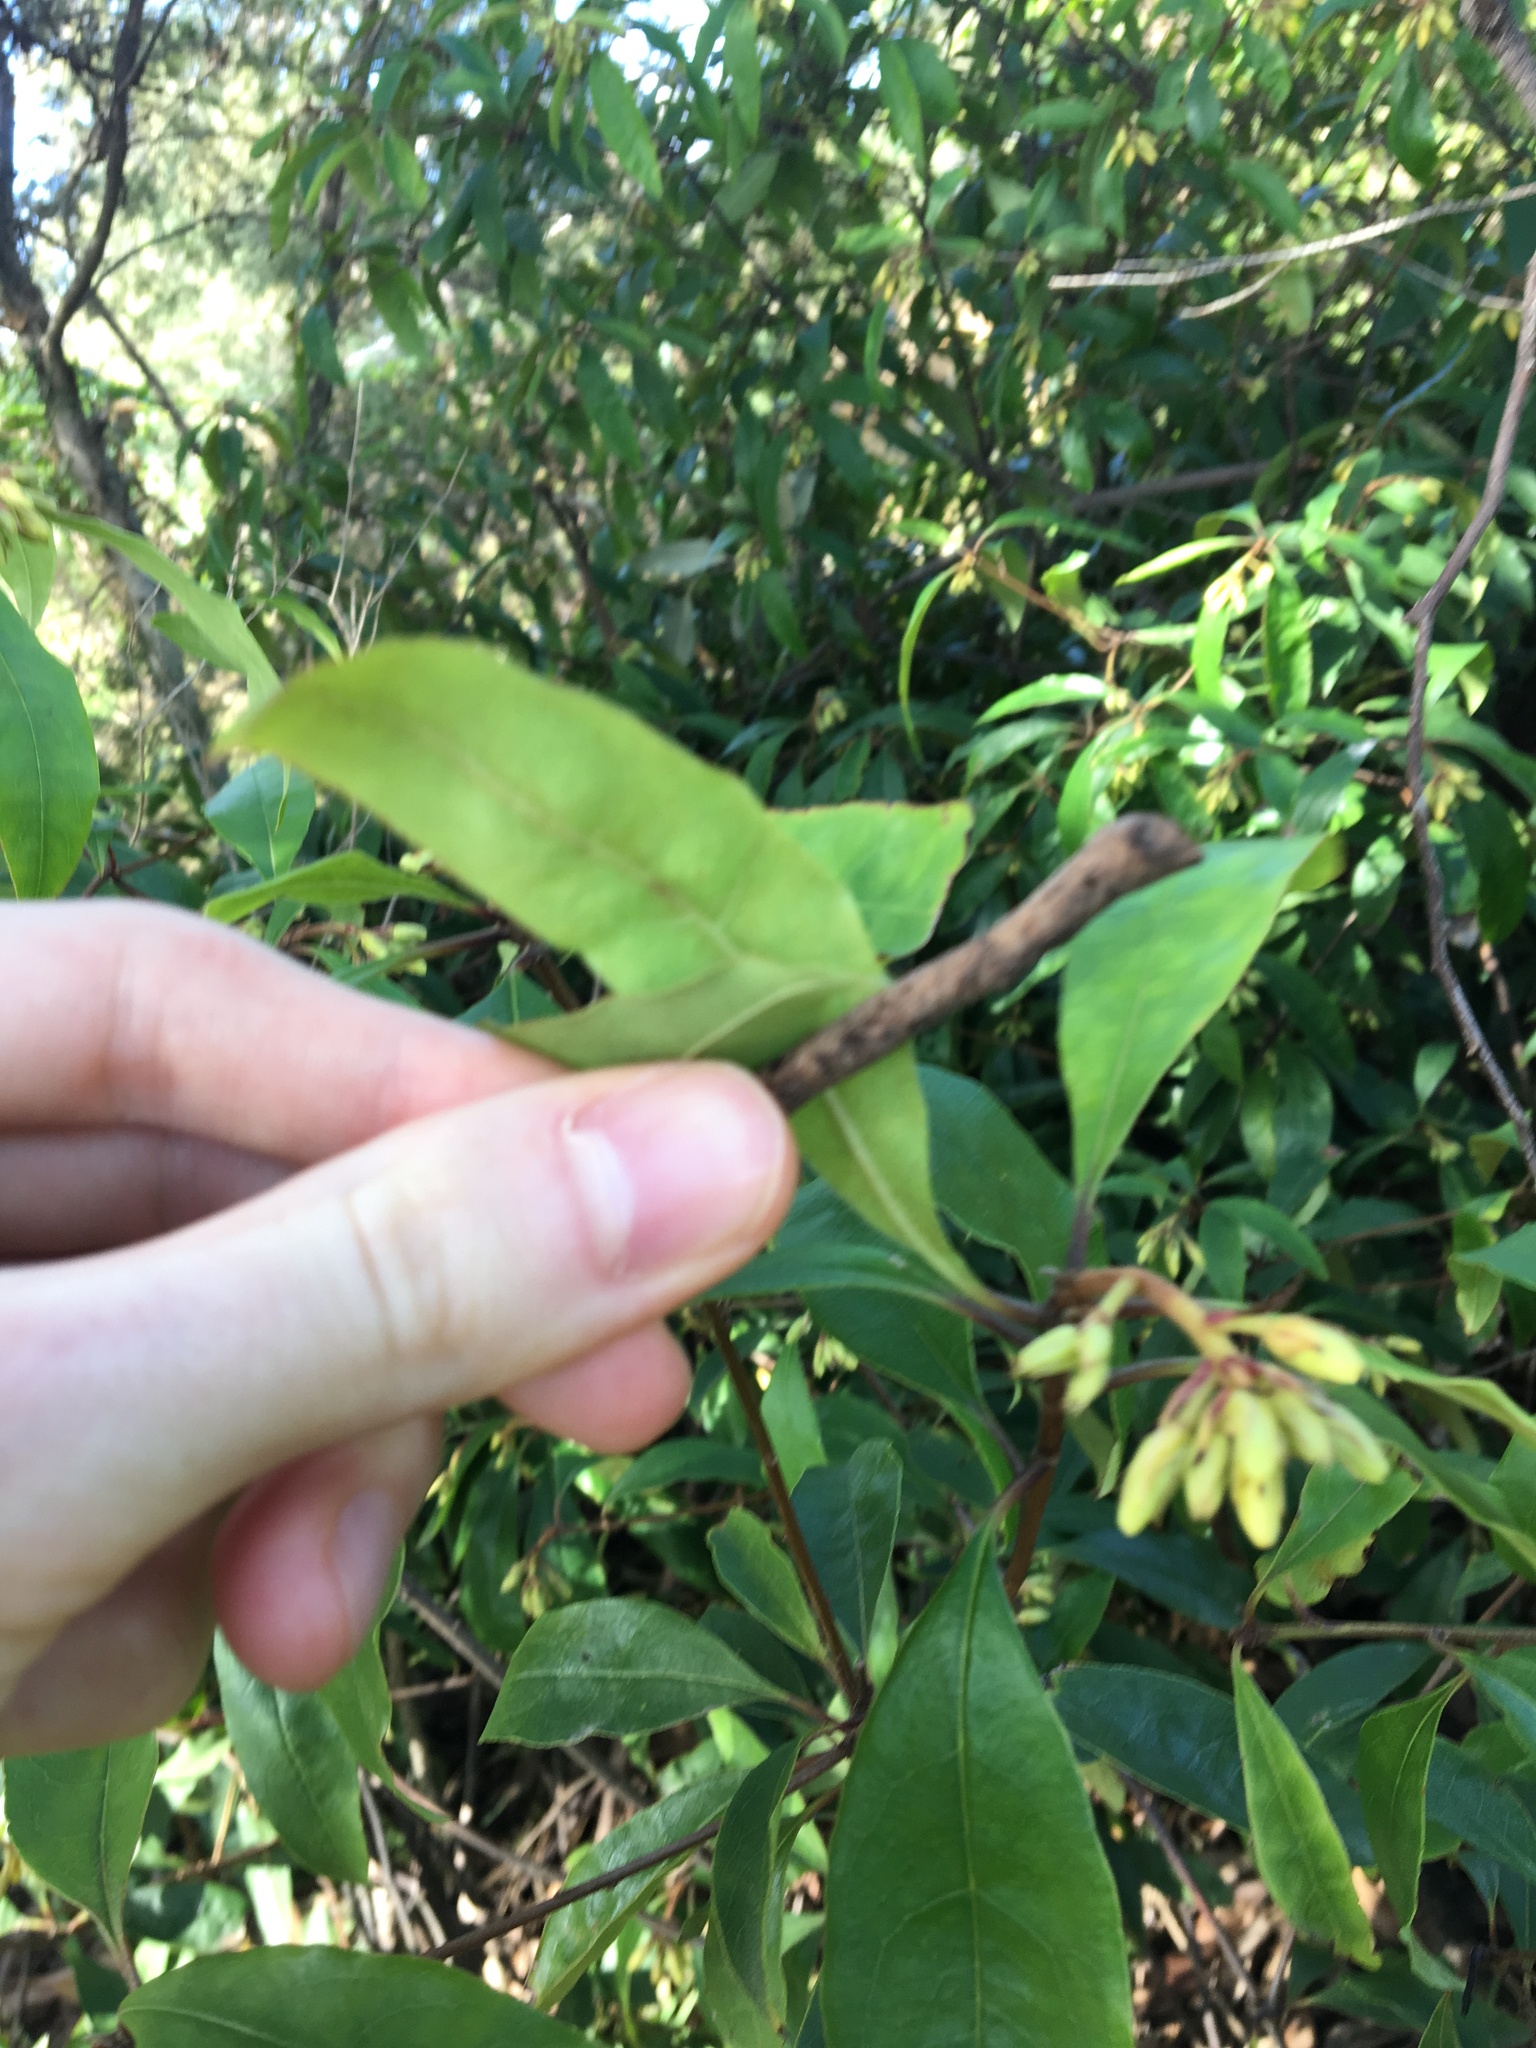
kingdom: Plantae
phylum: Tracheophyta
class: Magnoliopsida
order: Apiales
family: Pittosporaceae
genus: Pittosporum
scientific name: Pittosporum revolutum
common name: Brisbane-laurel
